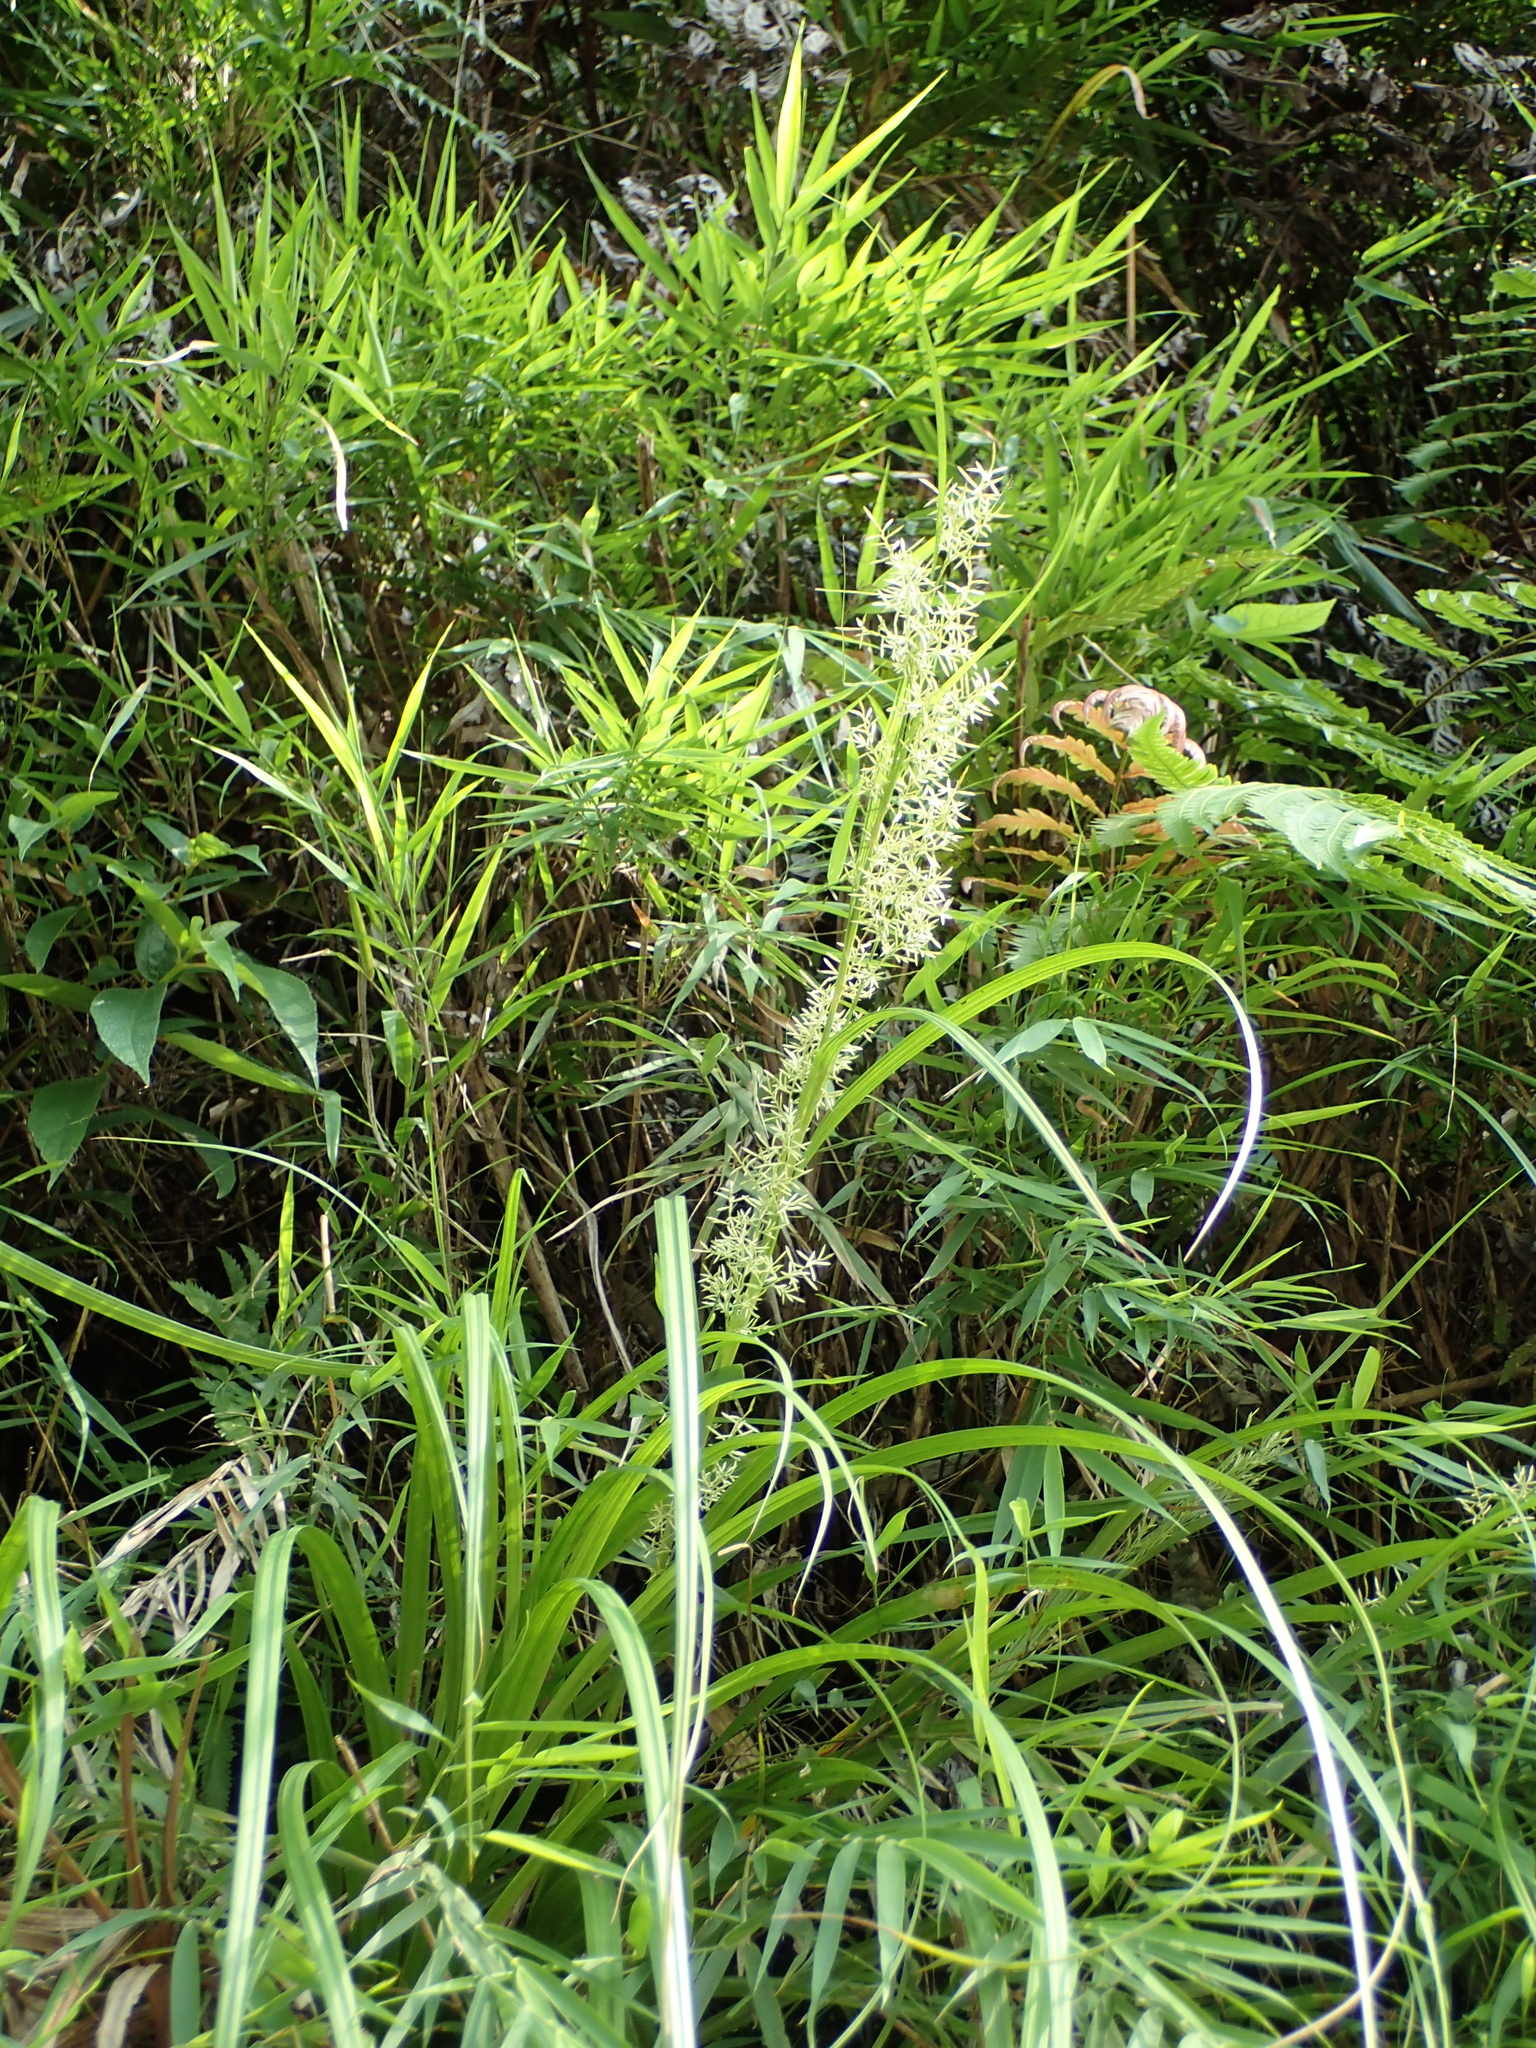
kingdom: Plantae
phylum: Tracheophyta
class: Liliopsida
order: Poales
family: Cyperaceae
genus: Carex
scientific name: Carex cruciata
